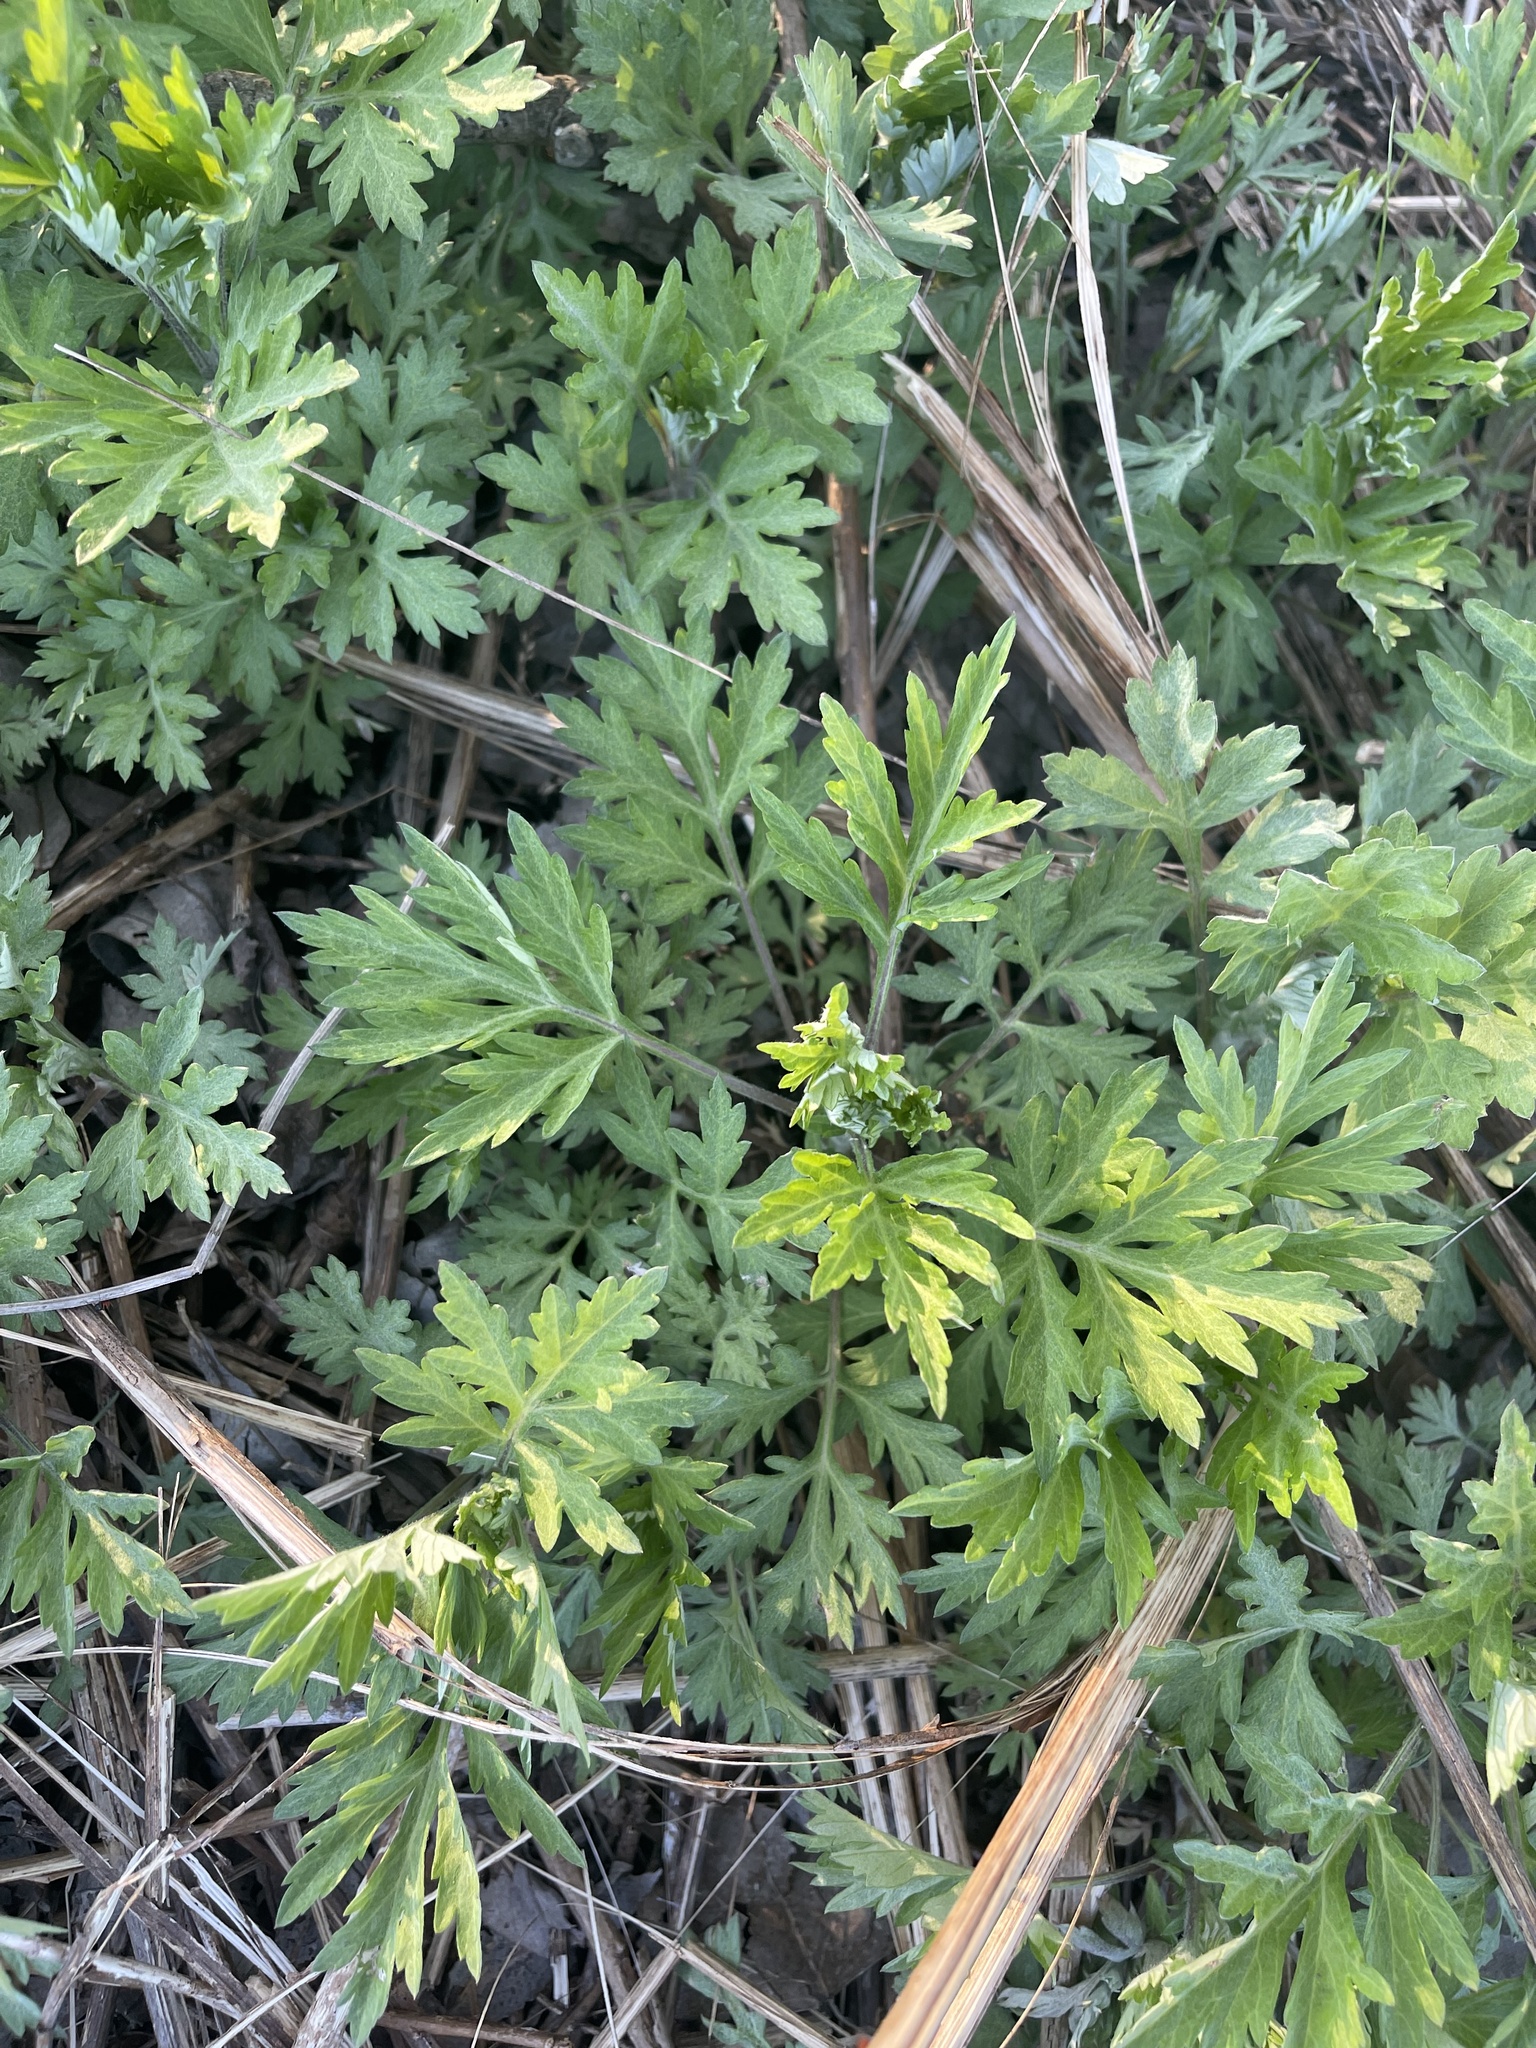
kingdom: Plantae
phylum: Tracheophyta
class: Magnoliopsida
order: Asterales
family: Asteraceae
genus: Artemisia
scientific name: Artemisia vulgaris
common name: Mugwort
